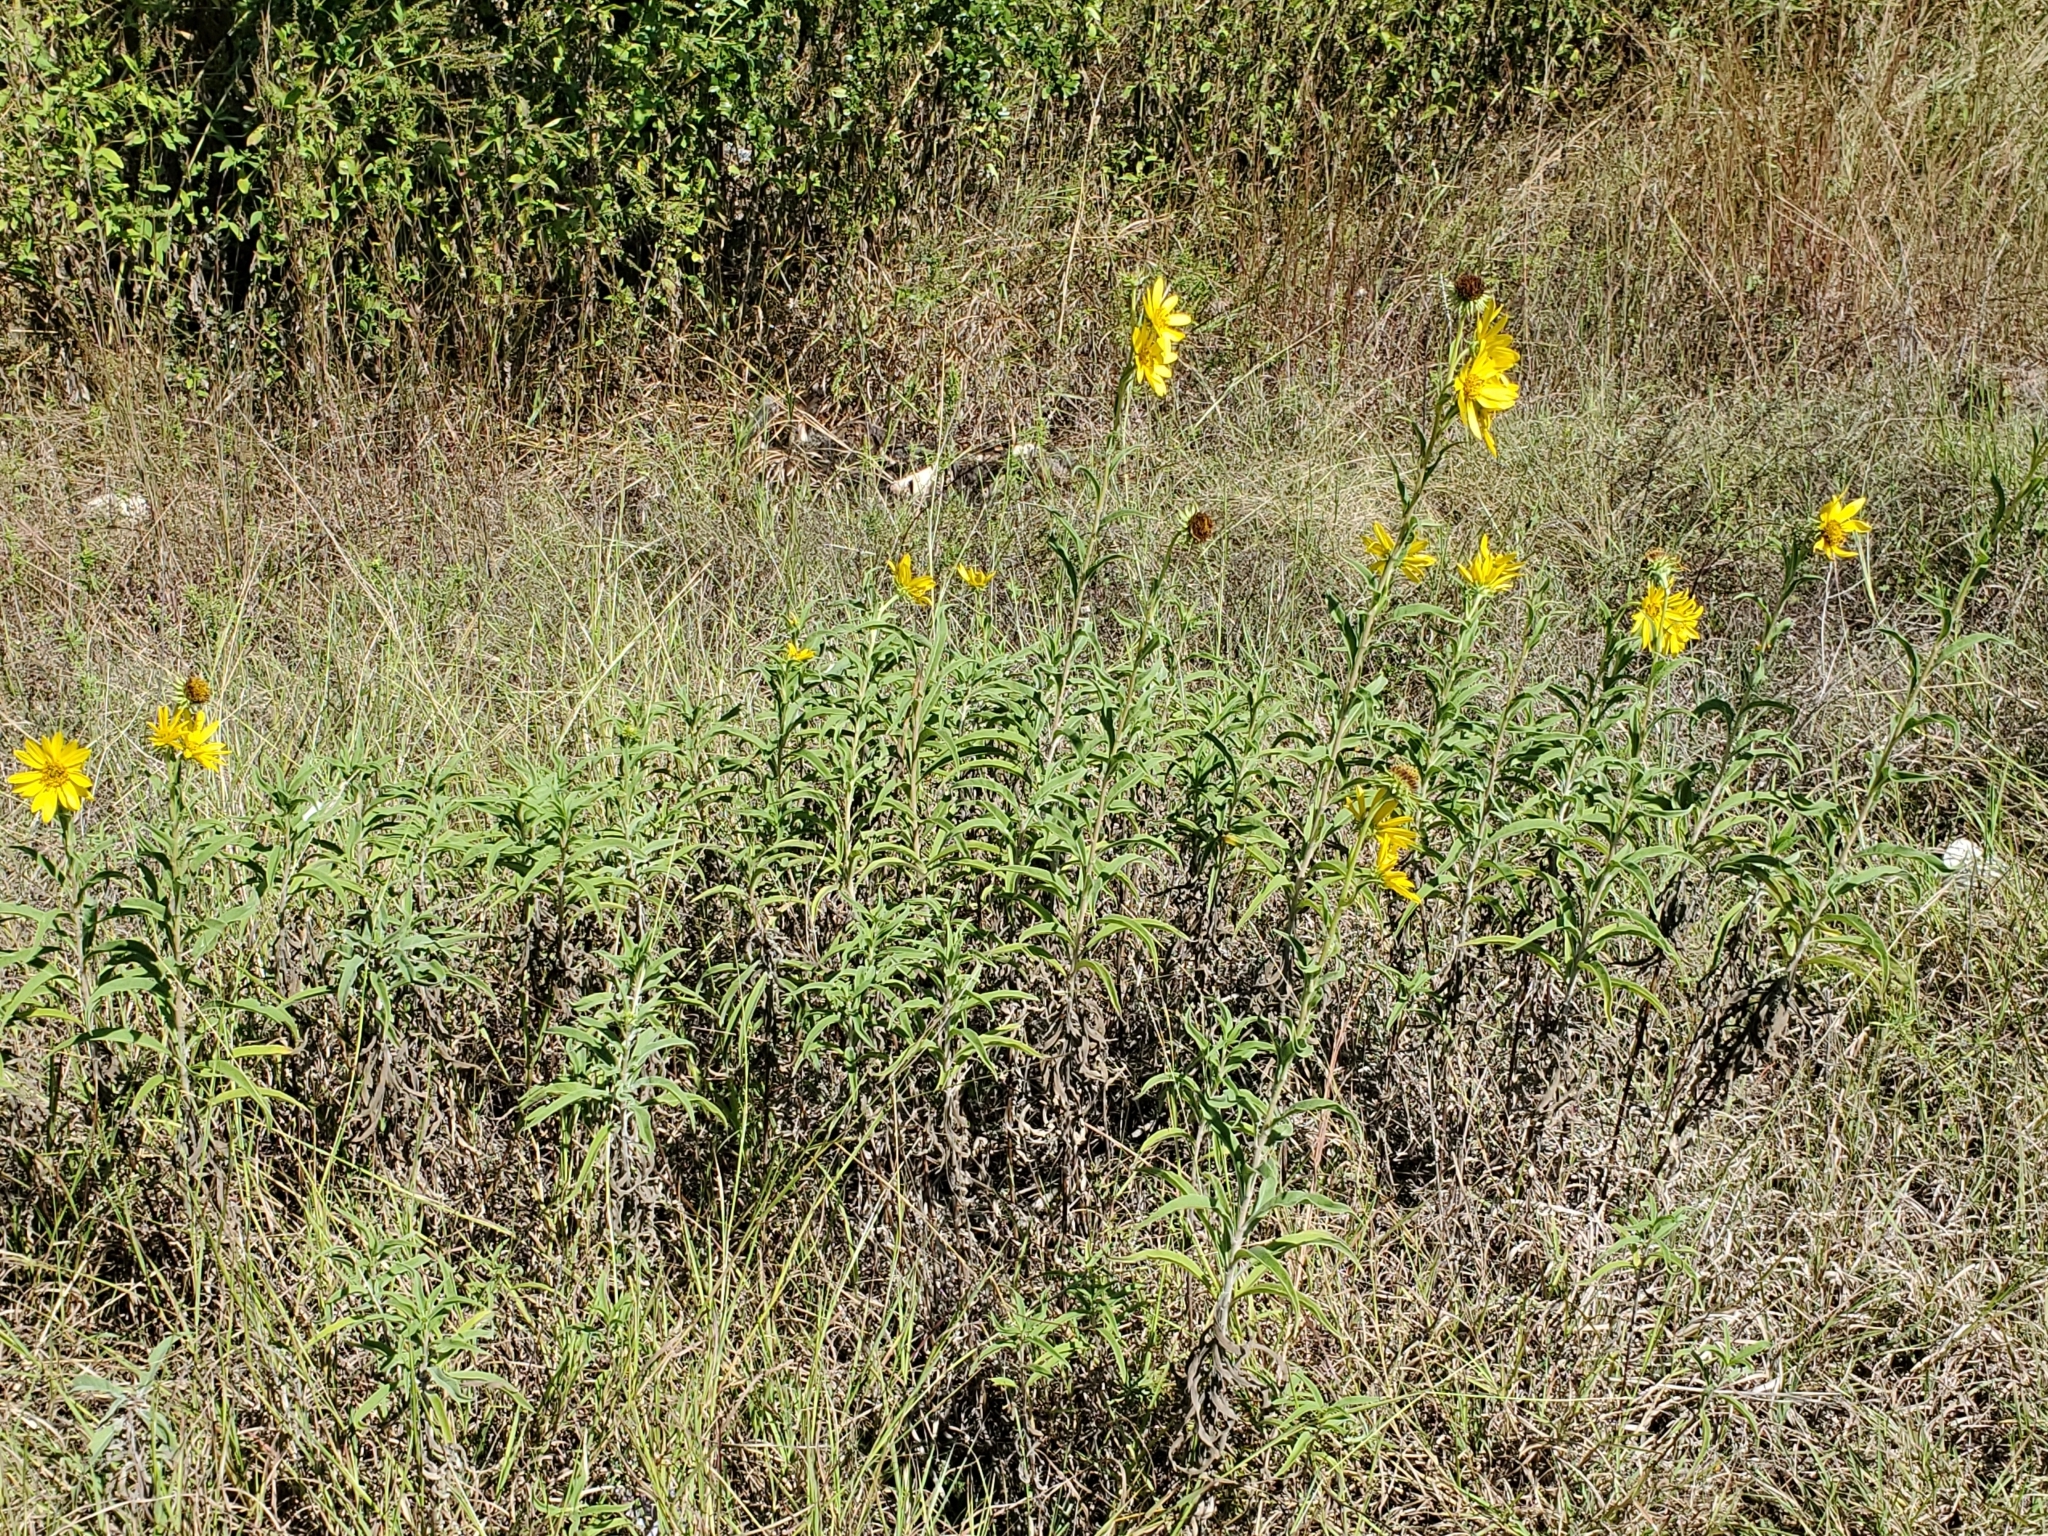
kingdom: Plantae
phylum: Tracheophyta
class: Magnoliopsida
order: Asterales
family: Asteraceae
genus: Helianthus
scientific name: Helianthus maximiliani
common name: Maximilian's sunflower
